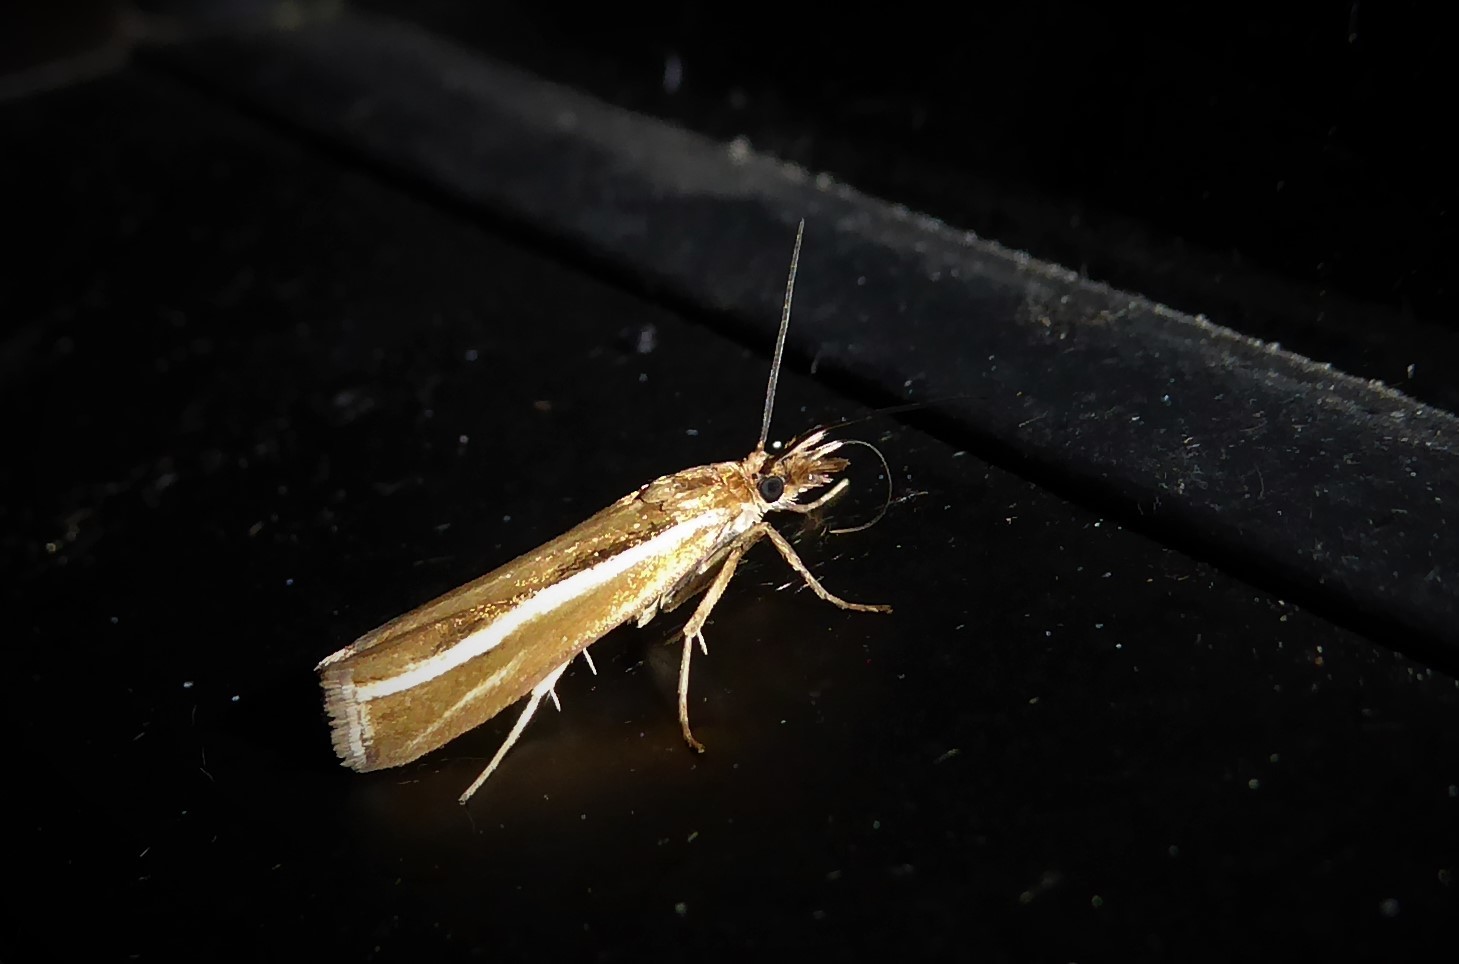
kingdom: Animalia
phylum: Arthropoda
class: Insecta
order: Lepidoptera
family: Crambidae
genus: Orocrambus
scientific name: Orocrambus aethonellus
